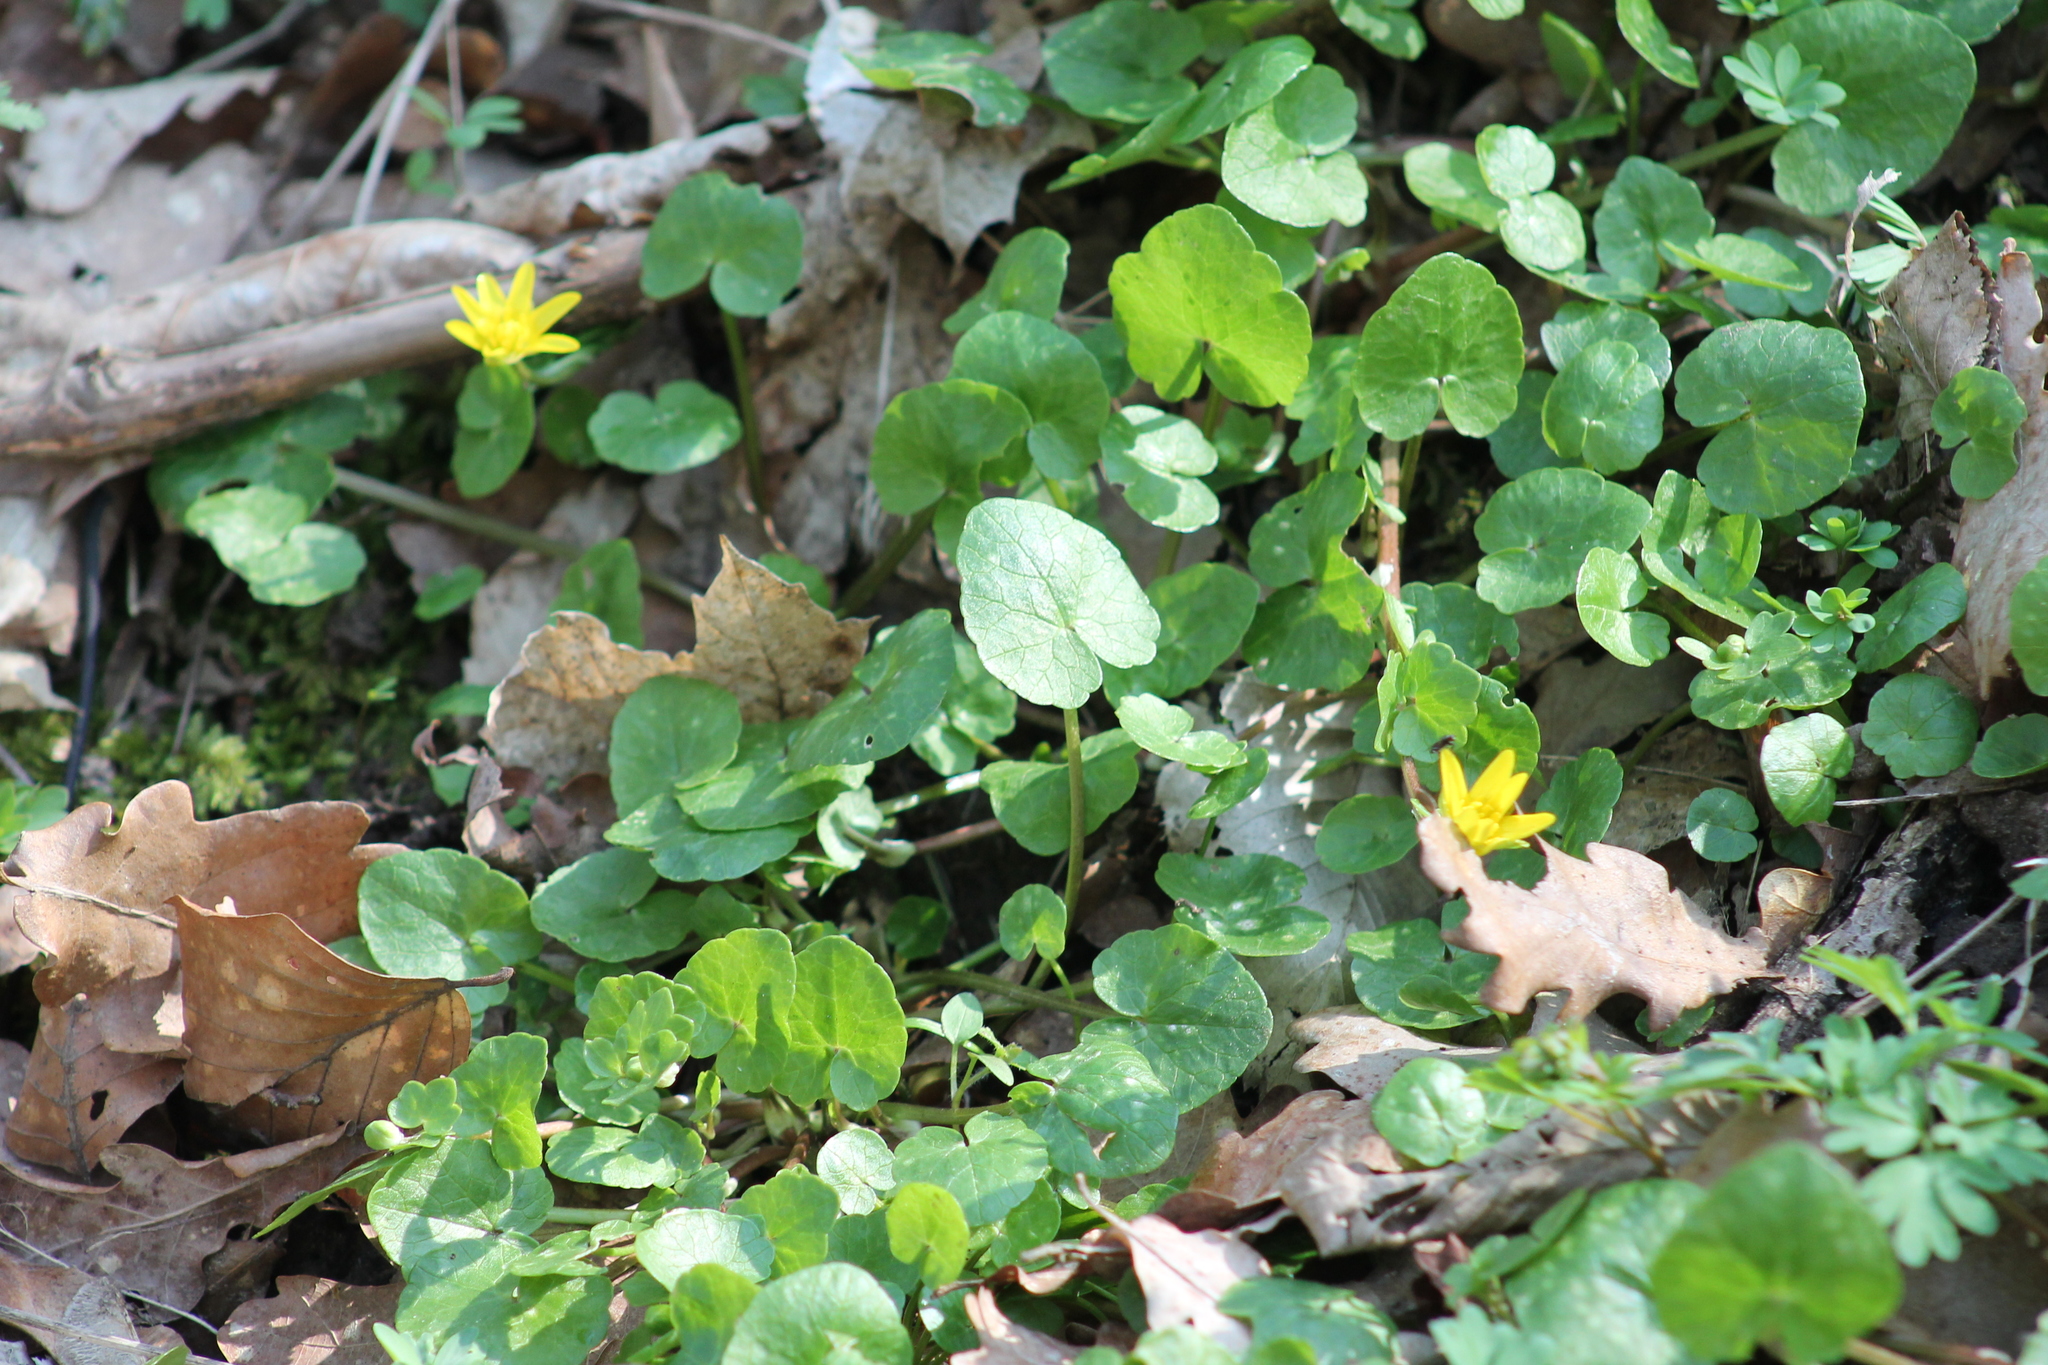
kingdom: Plantae
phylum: Tracheophyta
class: Magnoliopsida
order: Ranunculales
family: Ranunculaceae
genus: Ficaria
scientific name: Ficaria verna
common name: Lesser celandine
